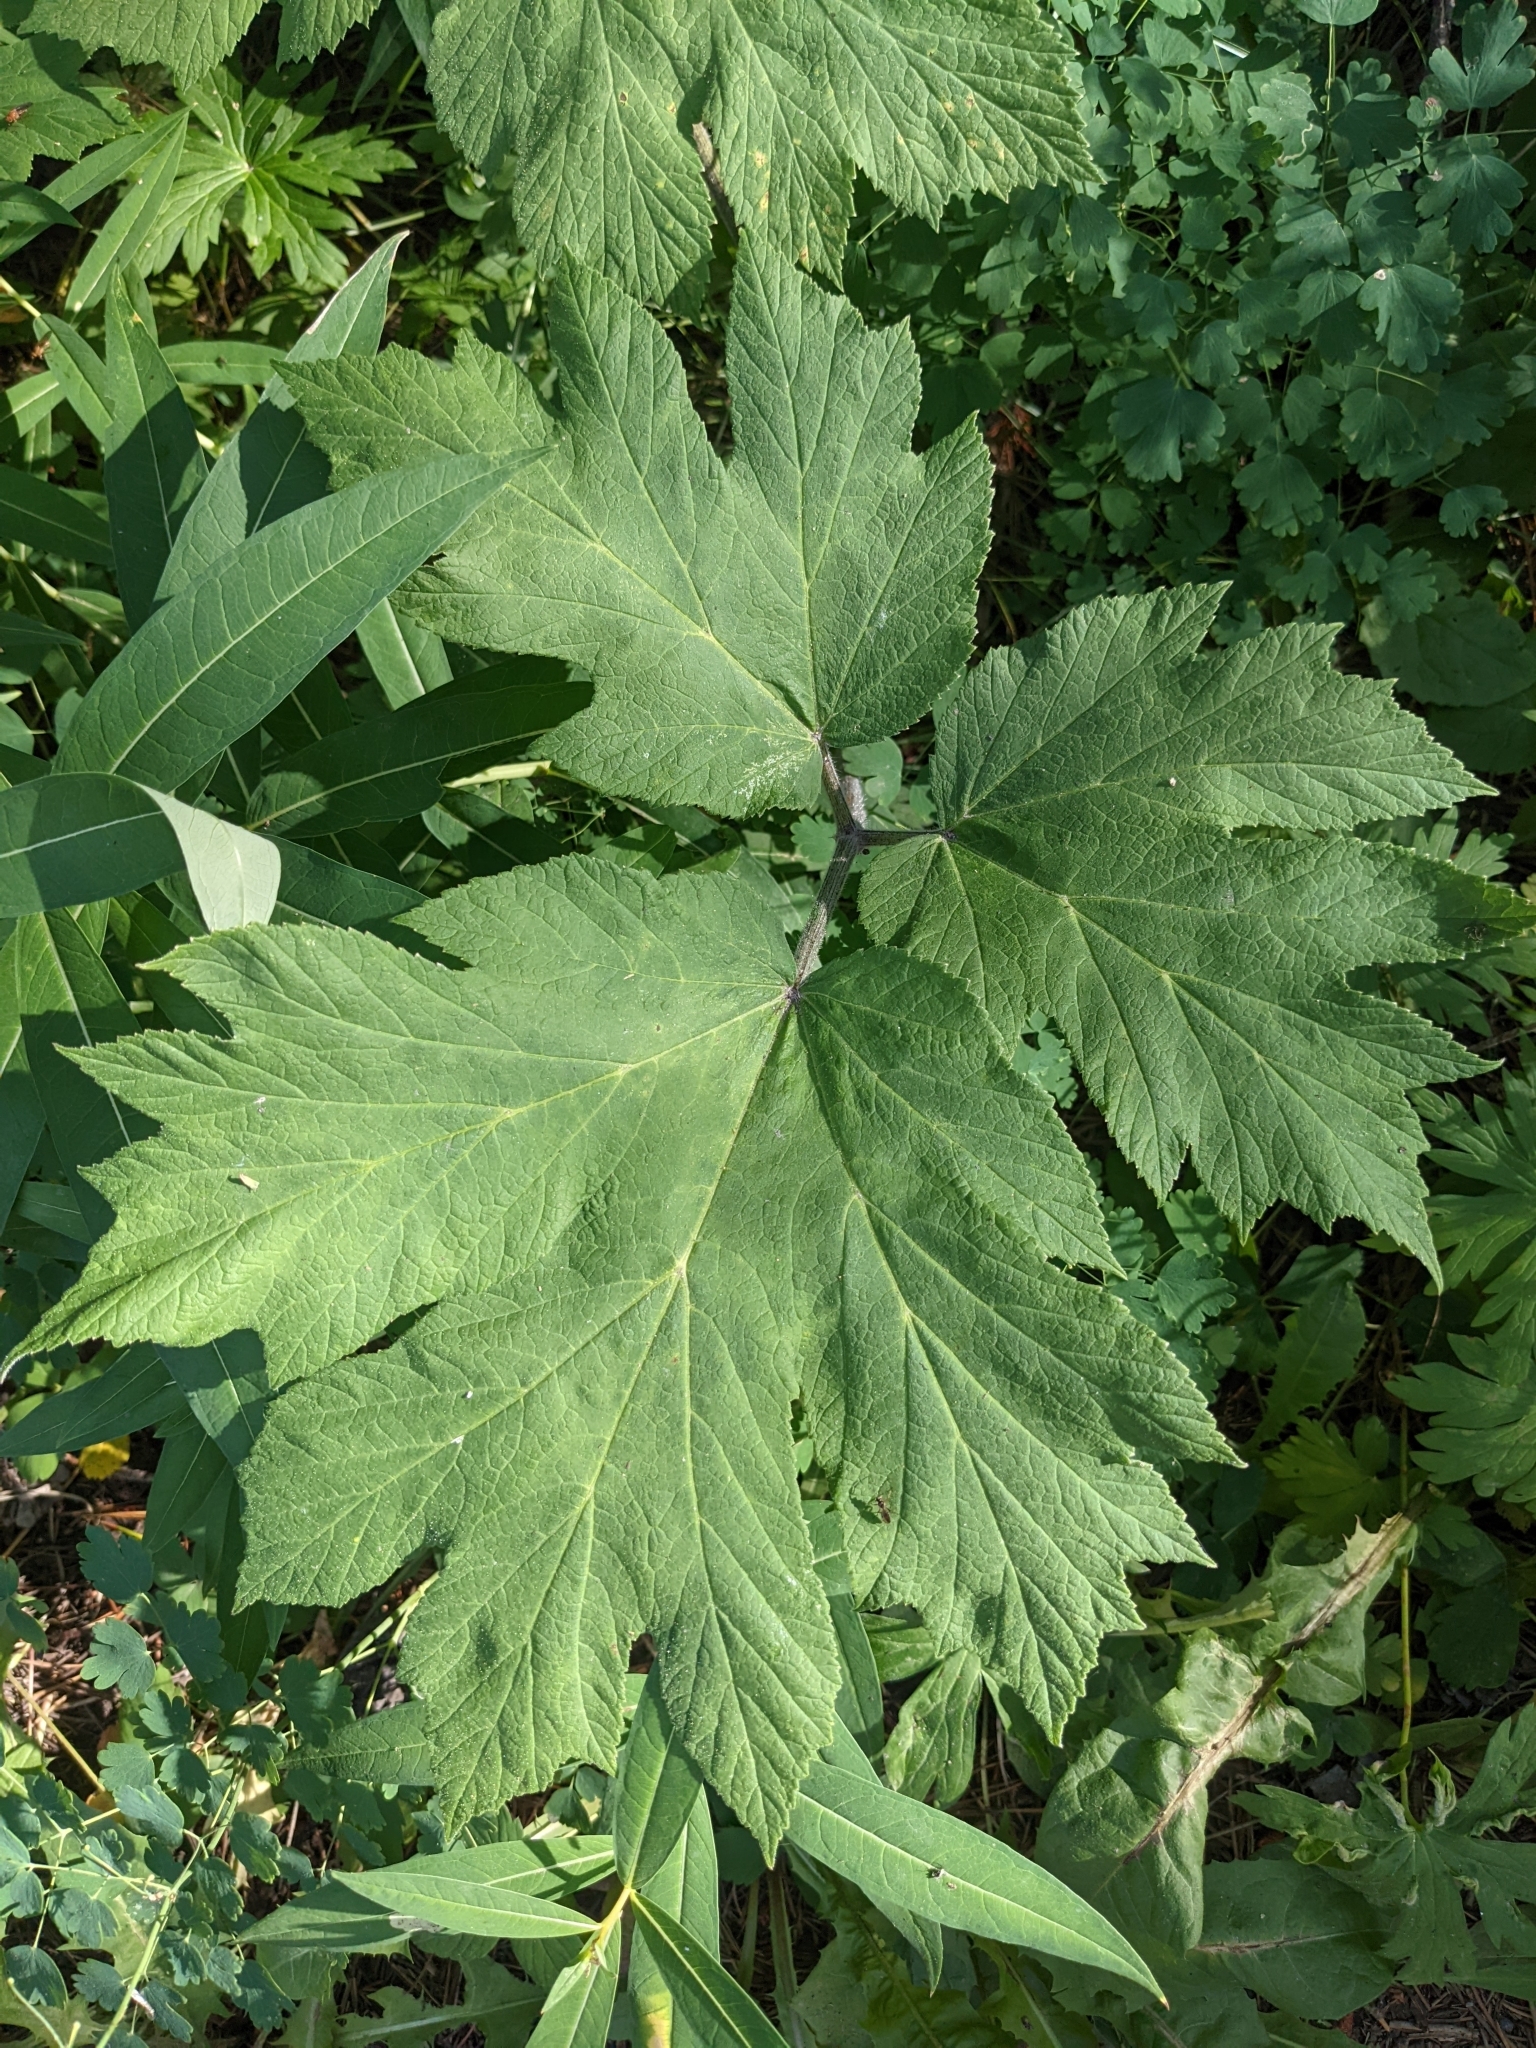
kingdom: Plantae
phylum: Tracheophyta
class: Magnoliopsida
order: Apiales
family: Apiaceae
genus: Heracleum
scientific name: Heracleum maximum
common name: American cow parsnip
